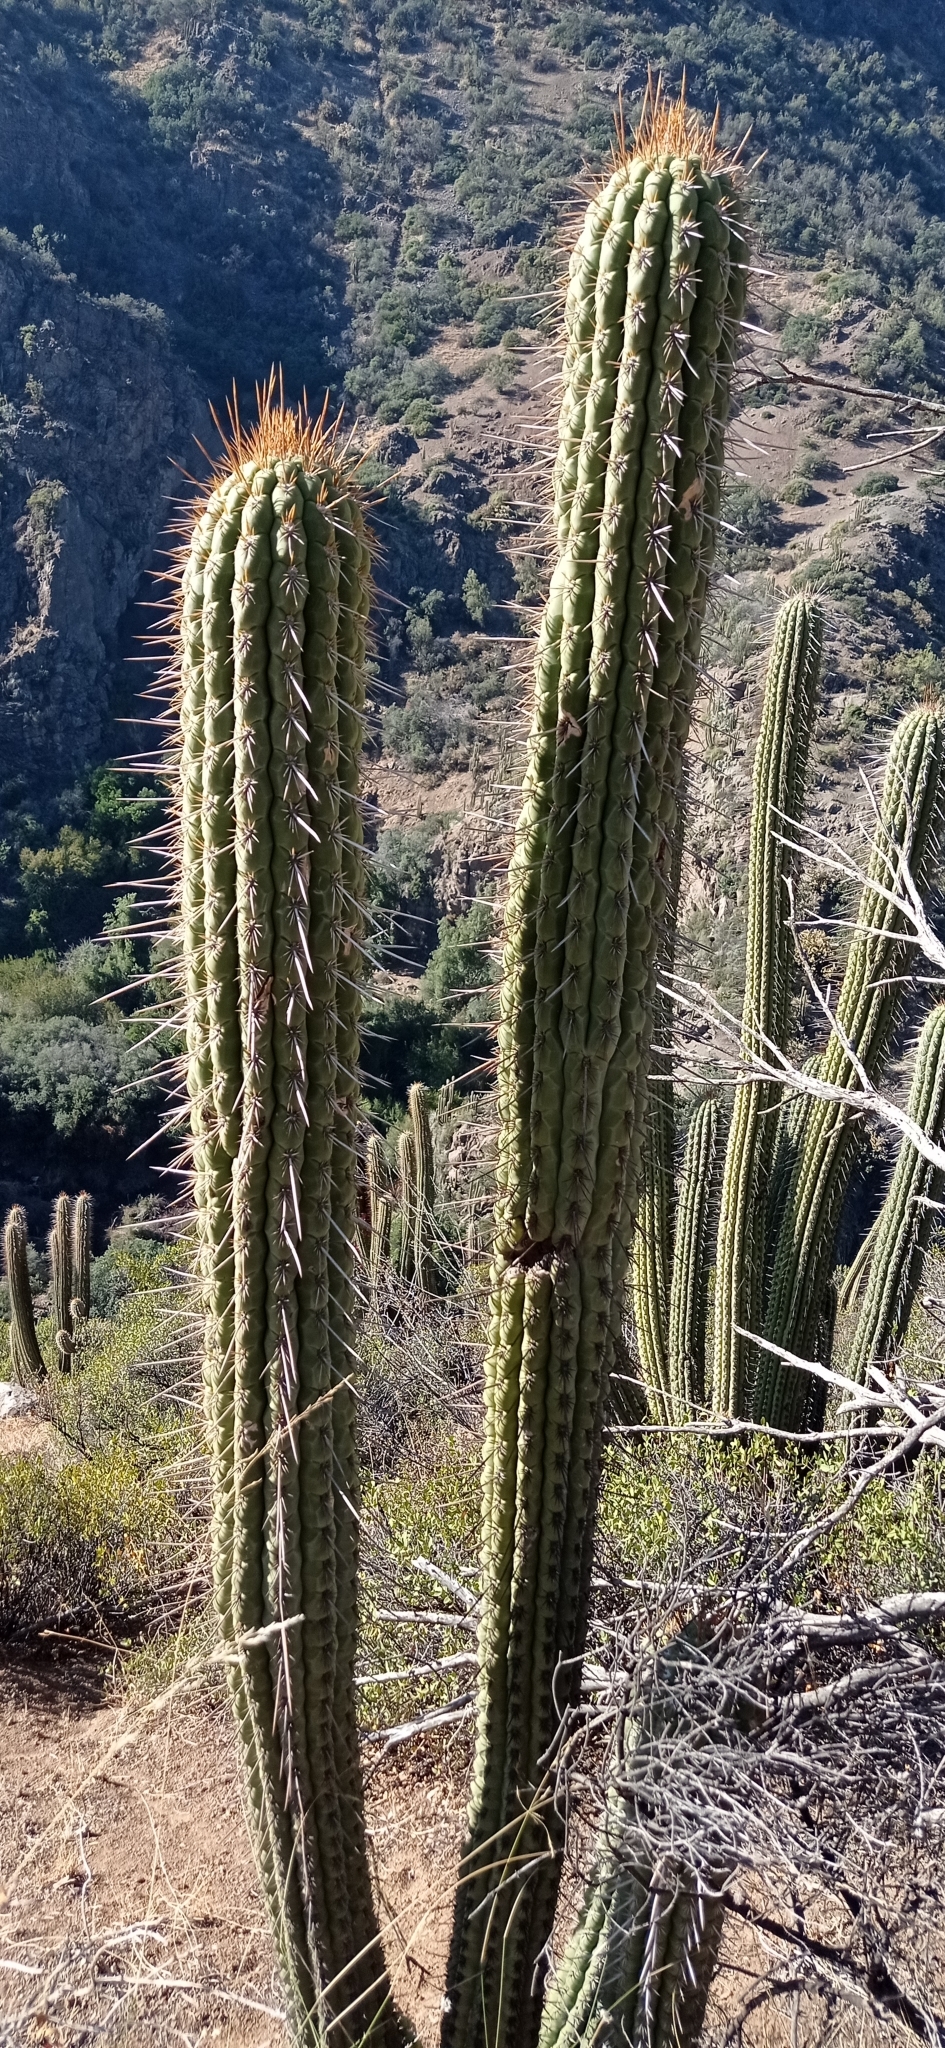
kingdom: Plantae
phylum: Tracheophyta
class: Magnoliopsida
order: Caryophyllales
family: Cactaceae
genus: Leucostele
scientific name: Leucostele chiloensis
